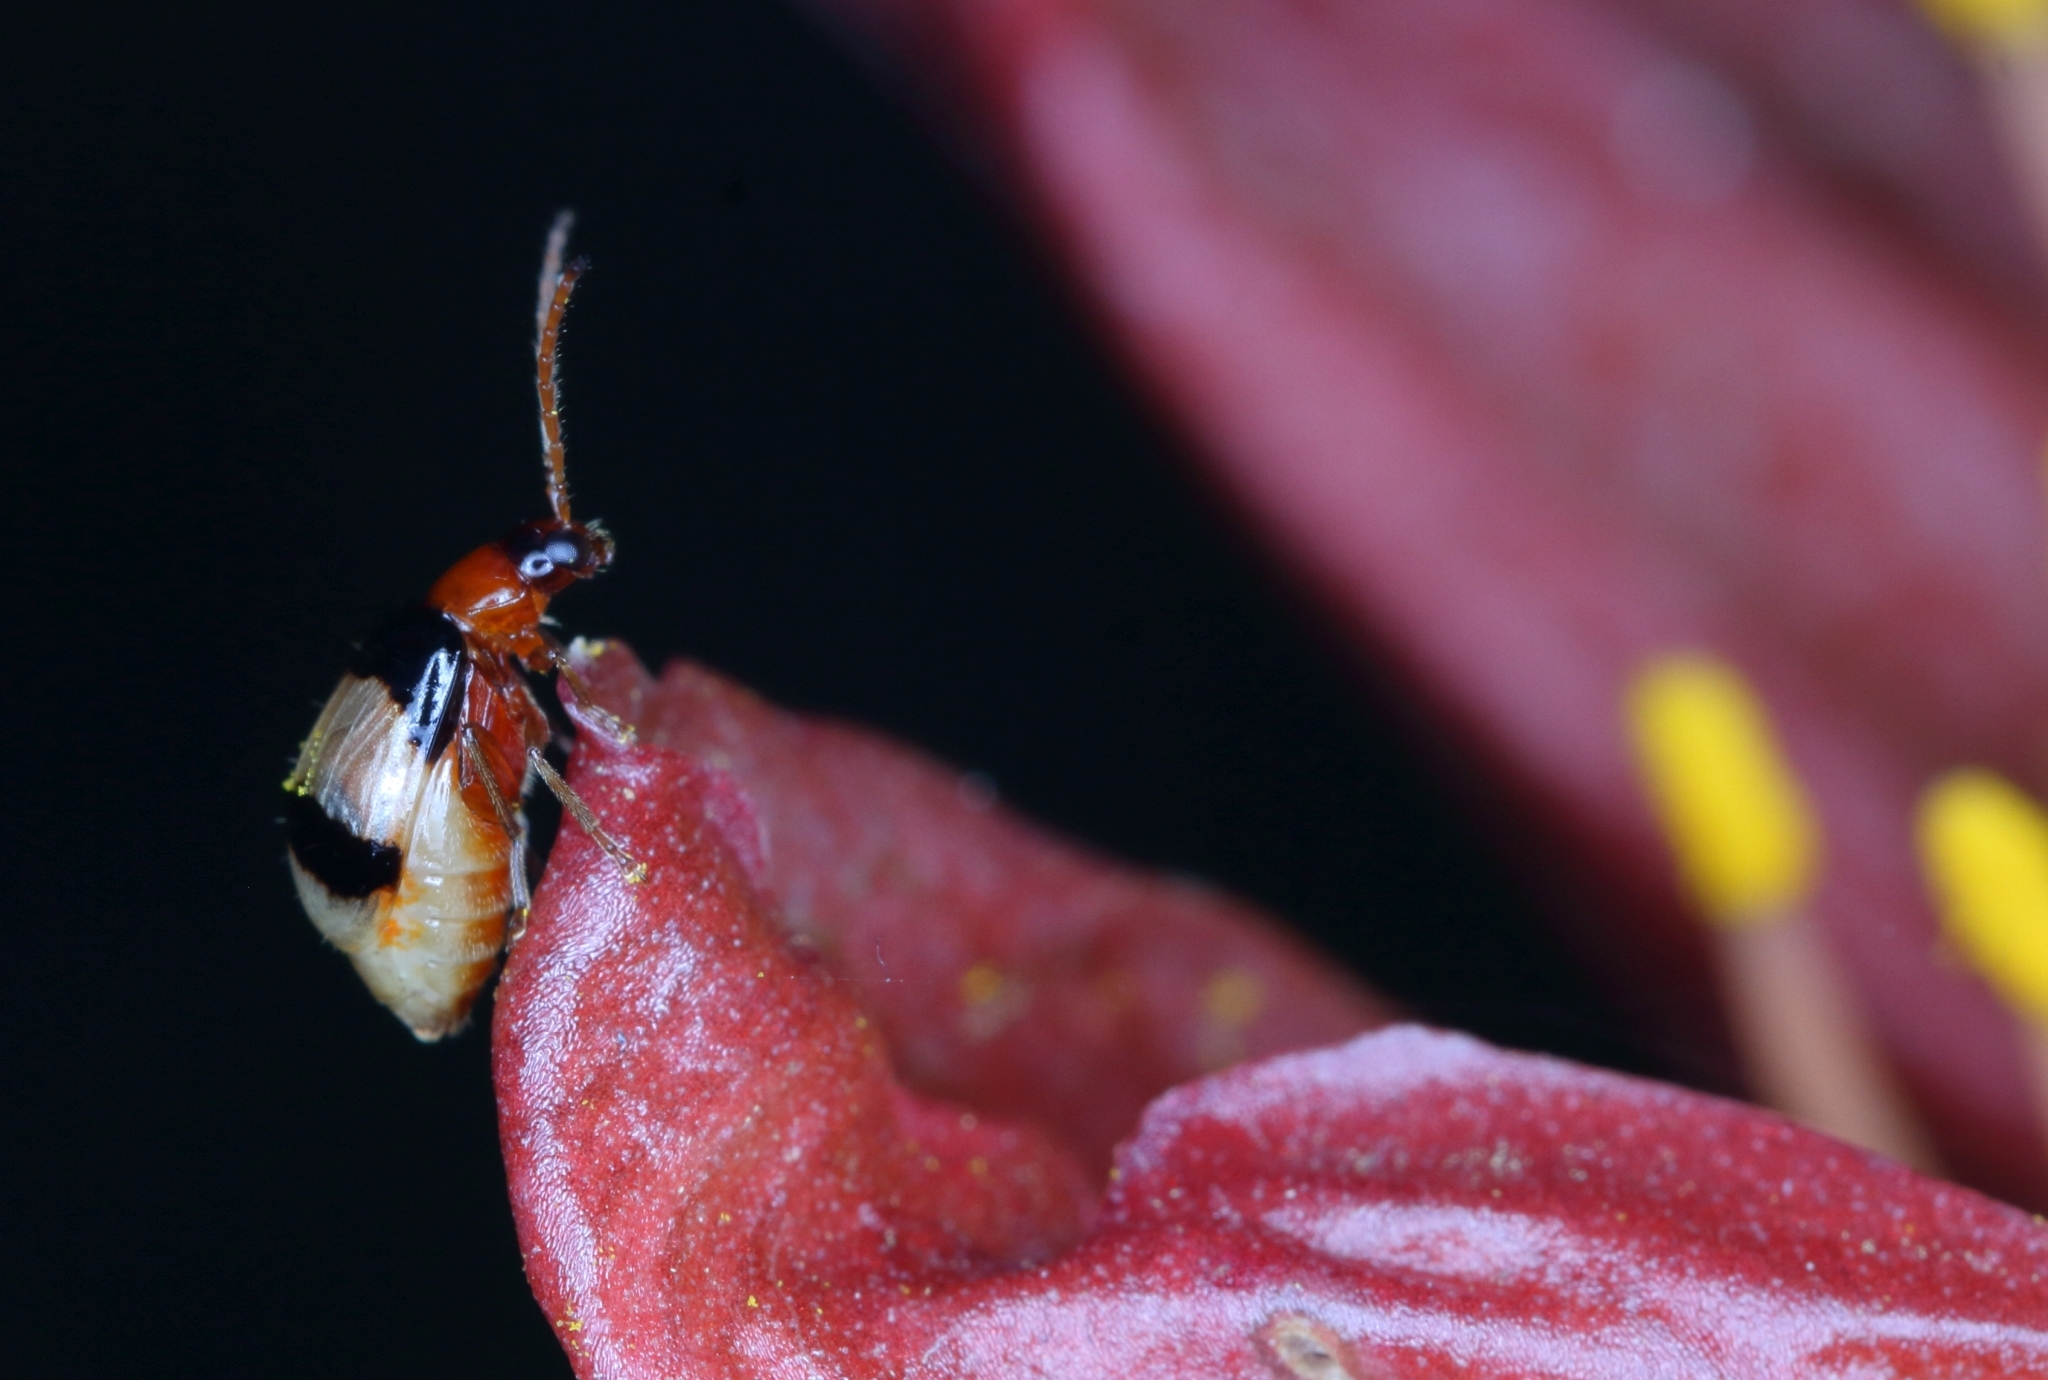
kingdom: Animalia
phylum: Arthropoda
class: Insecta
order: Coleoptera
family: Chrysomelidae
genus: Monolepta
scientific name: Monolepta
